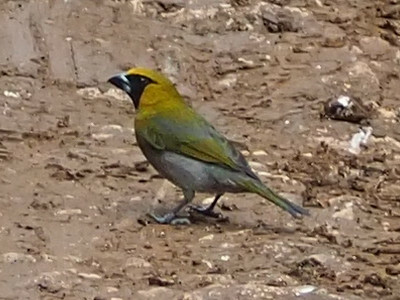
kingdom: Animalia
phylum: Chordata
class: Aves
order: Passeriformes
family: Cardinalidae
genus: Caryothraustes
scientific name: Caryothraustes poliogaster
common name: Black-faced grosbeak
